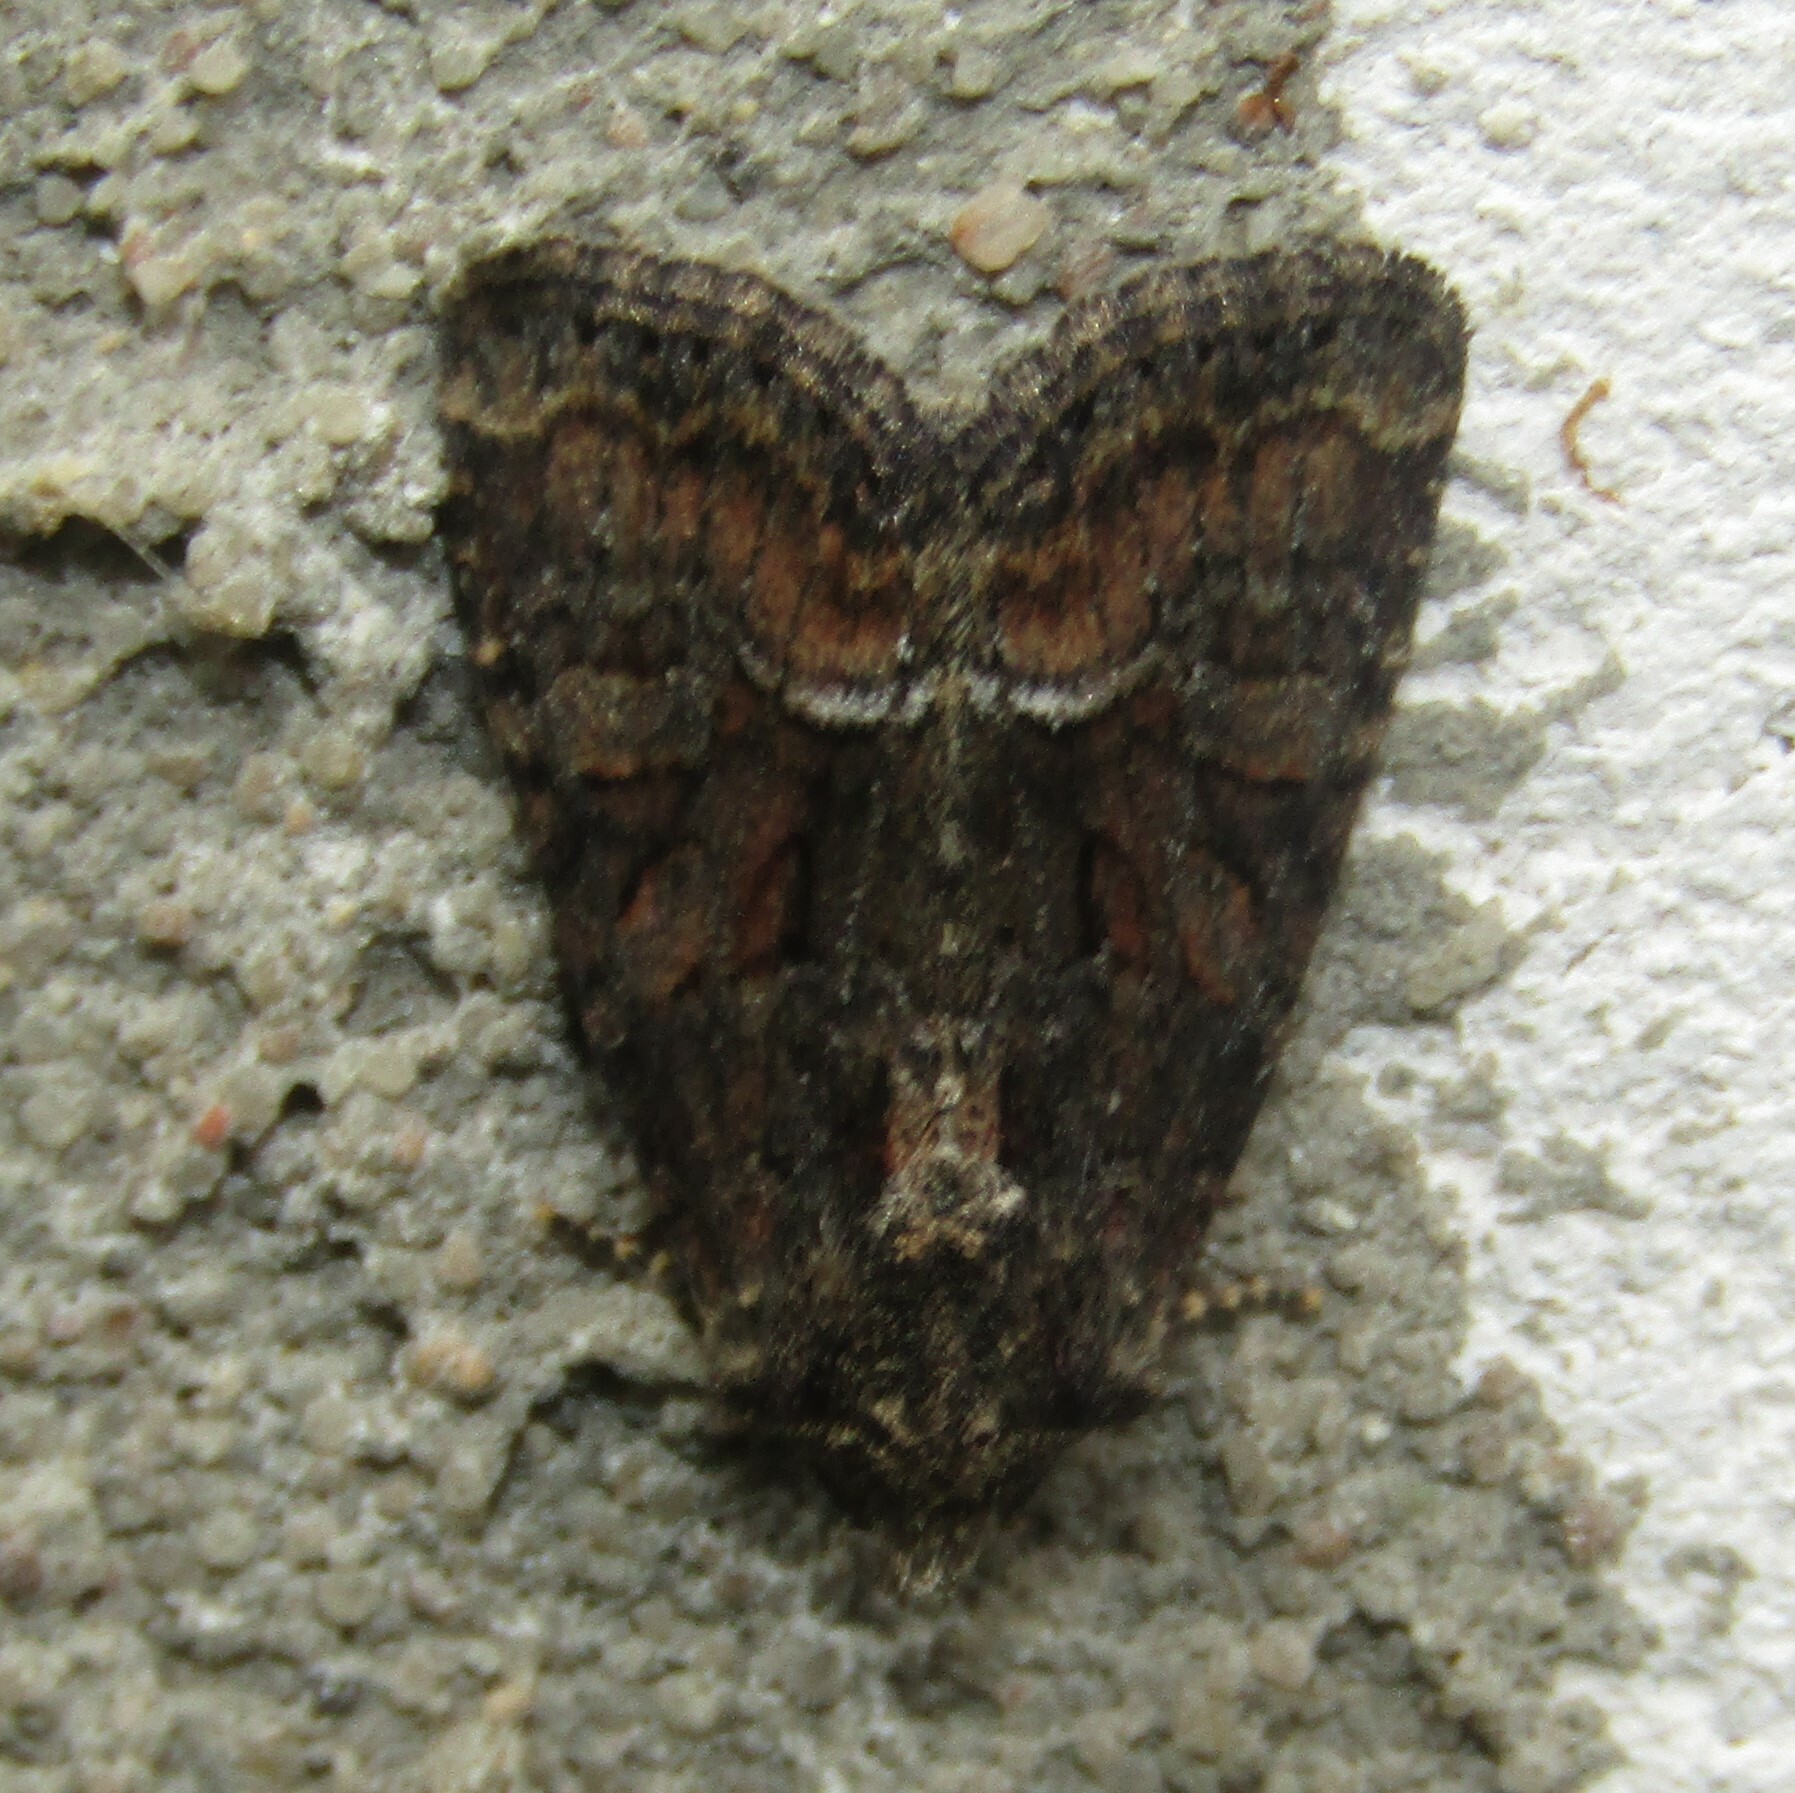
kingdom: Animalia
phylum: Arthropoda
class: Insecta
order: Lepidoptera
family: Noctuidae
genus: Oligia
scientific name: Oligia latruncula
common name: Tawny marbled minor
